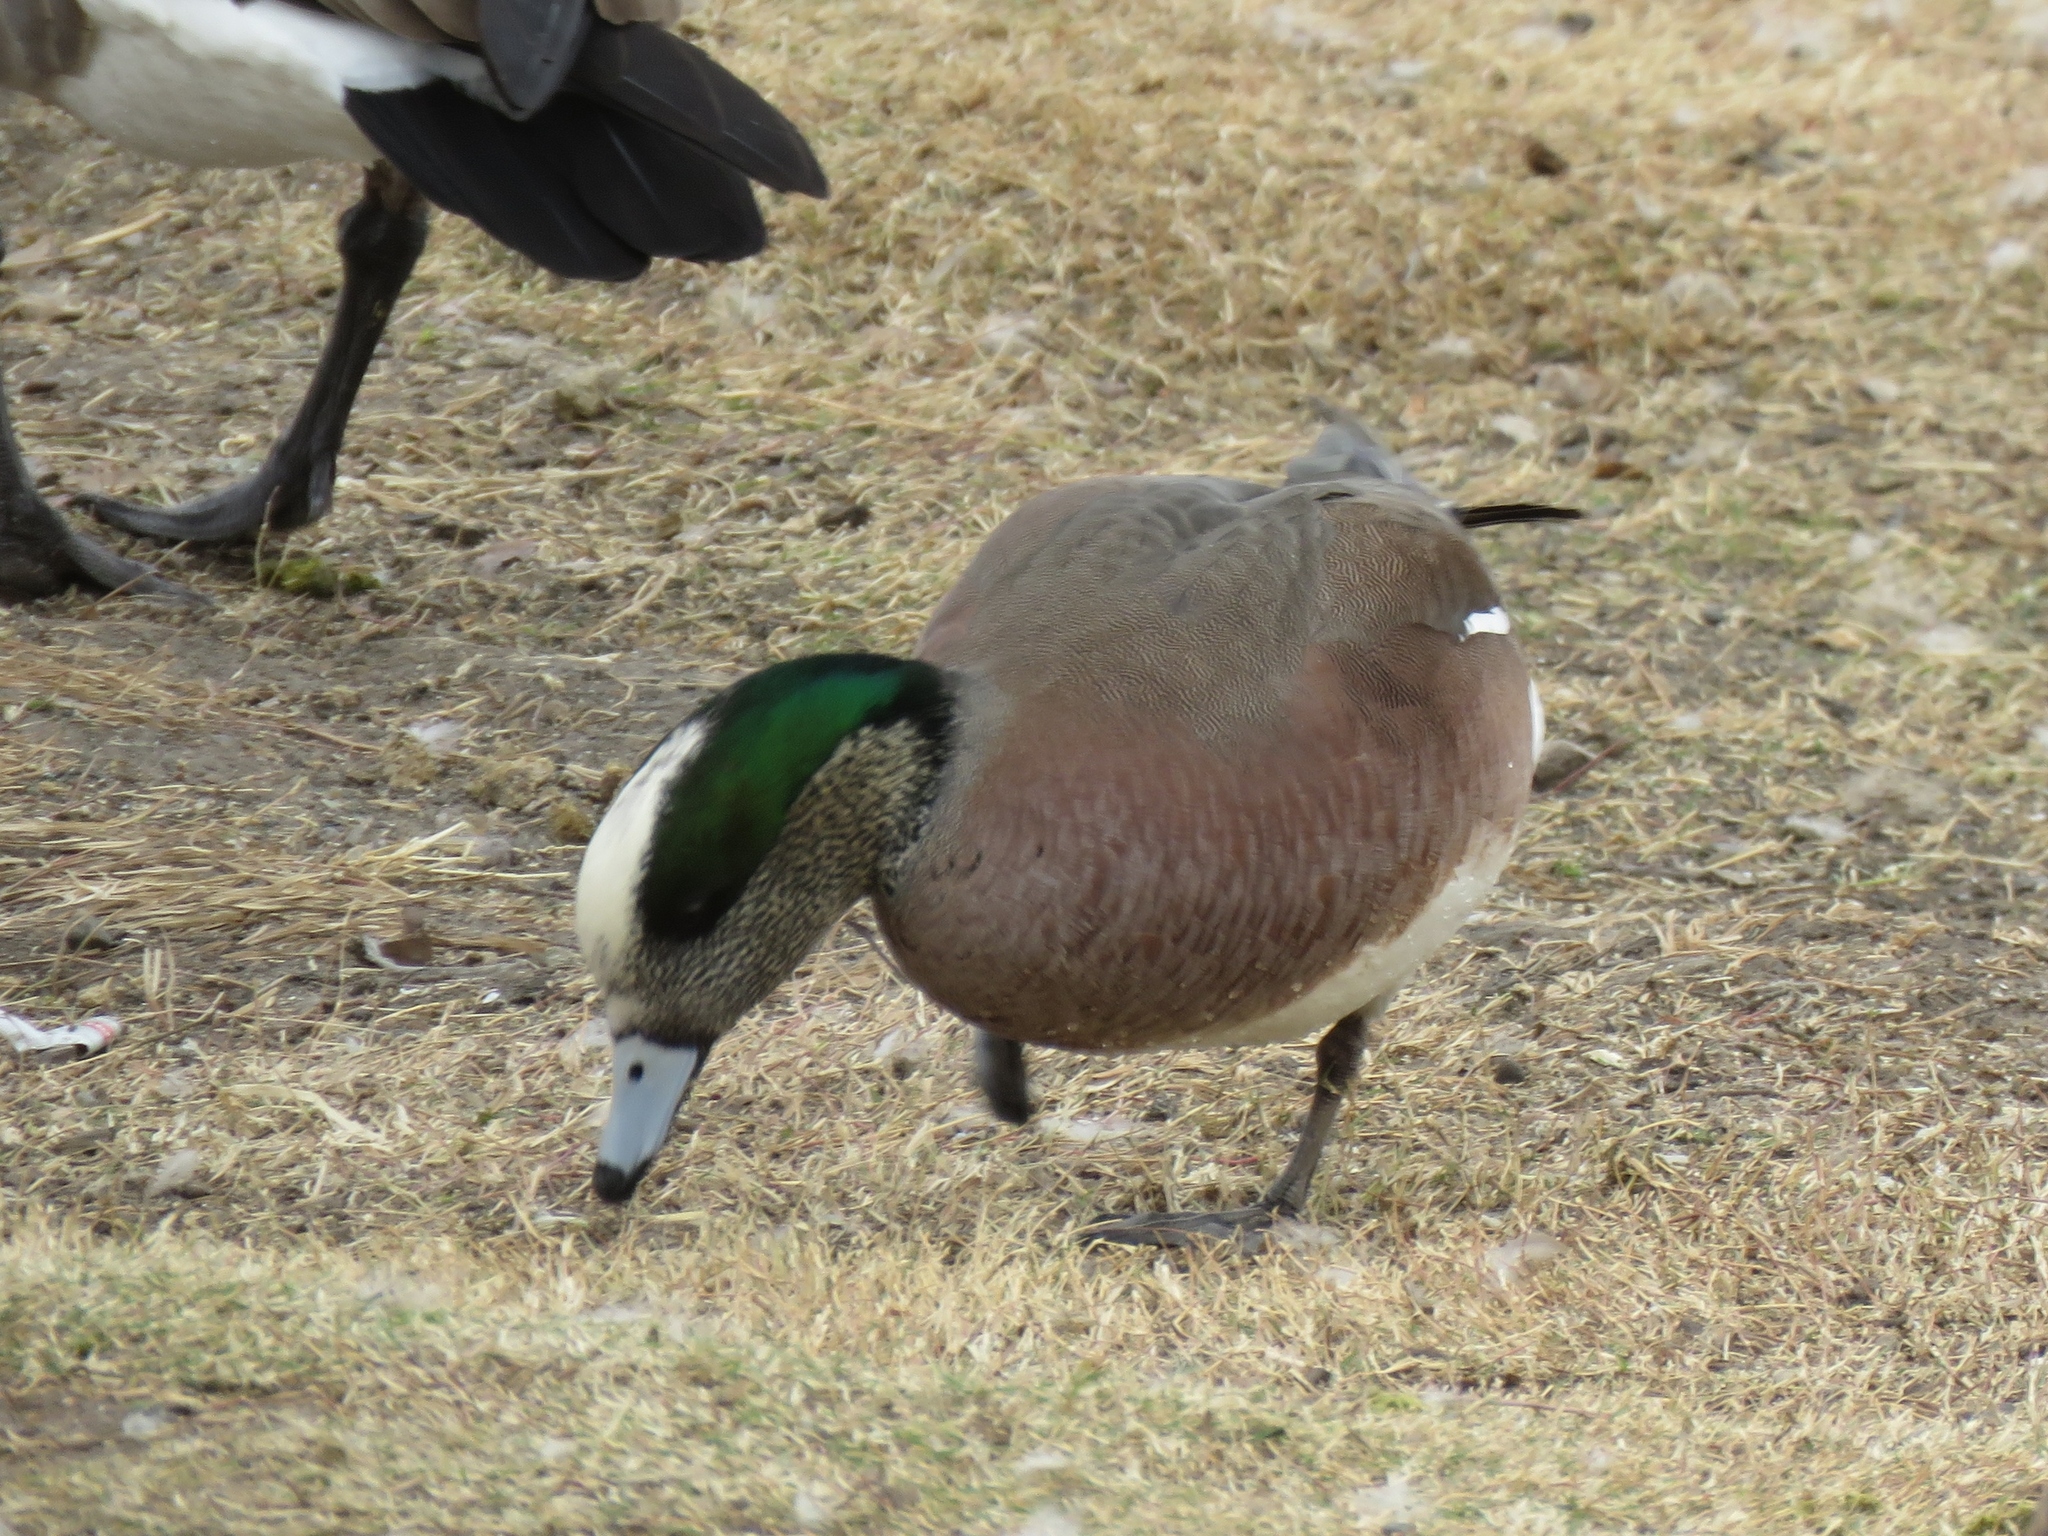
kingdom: Animalia
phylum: Chordata
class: Aves
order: Anseriformes
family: Anatidae
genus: Mareca
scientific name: Mareca americana
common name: American wigeon
